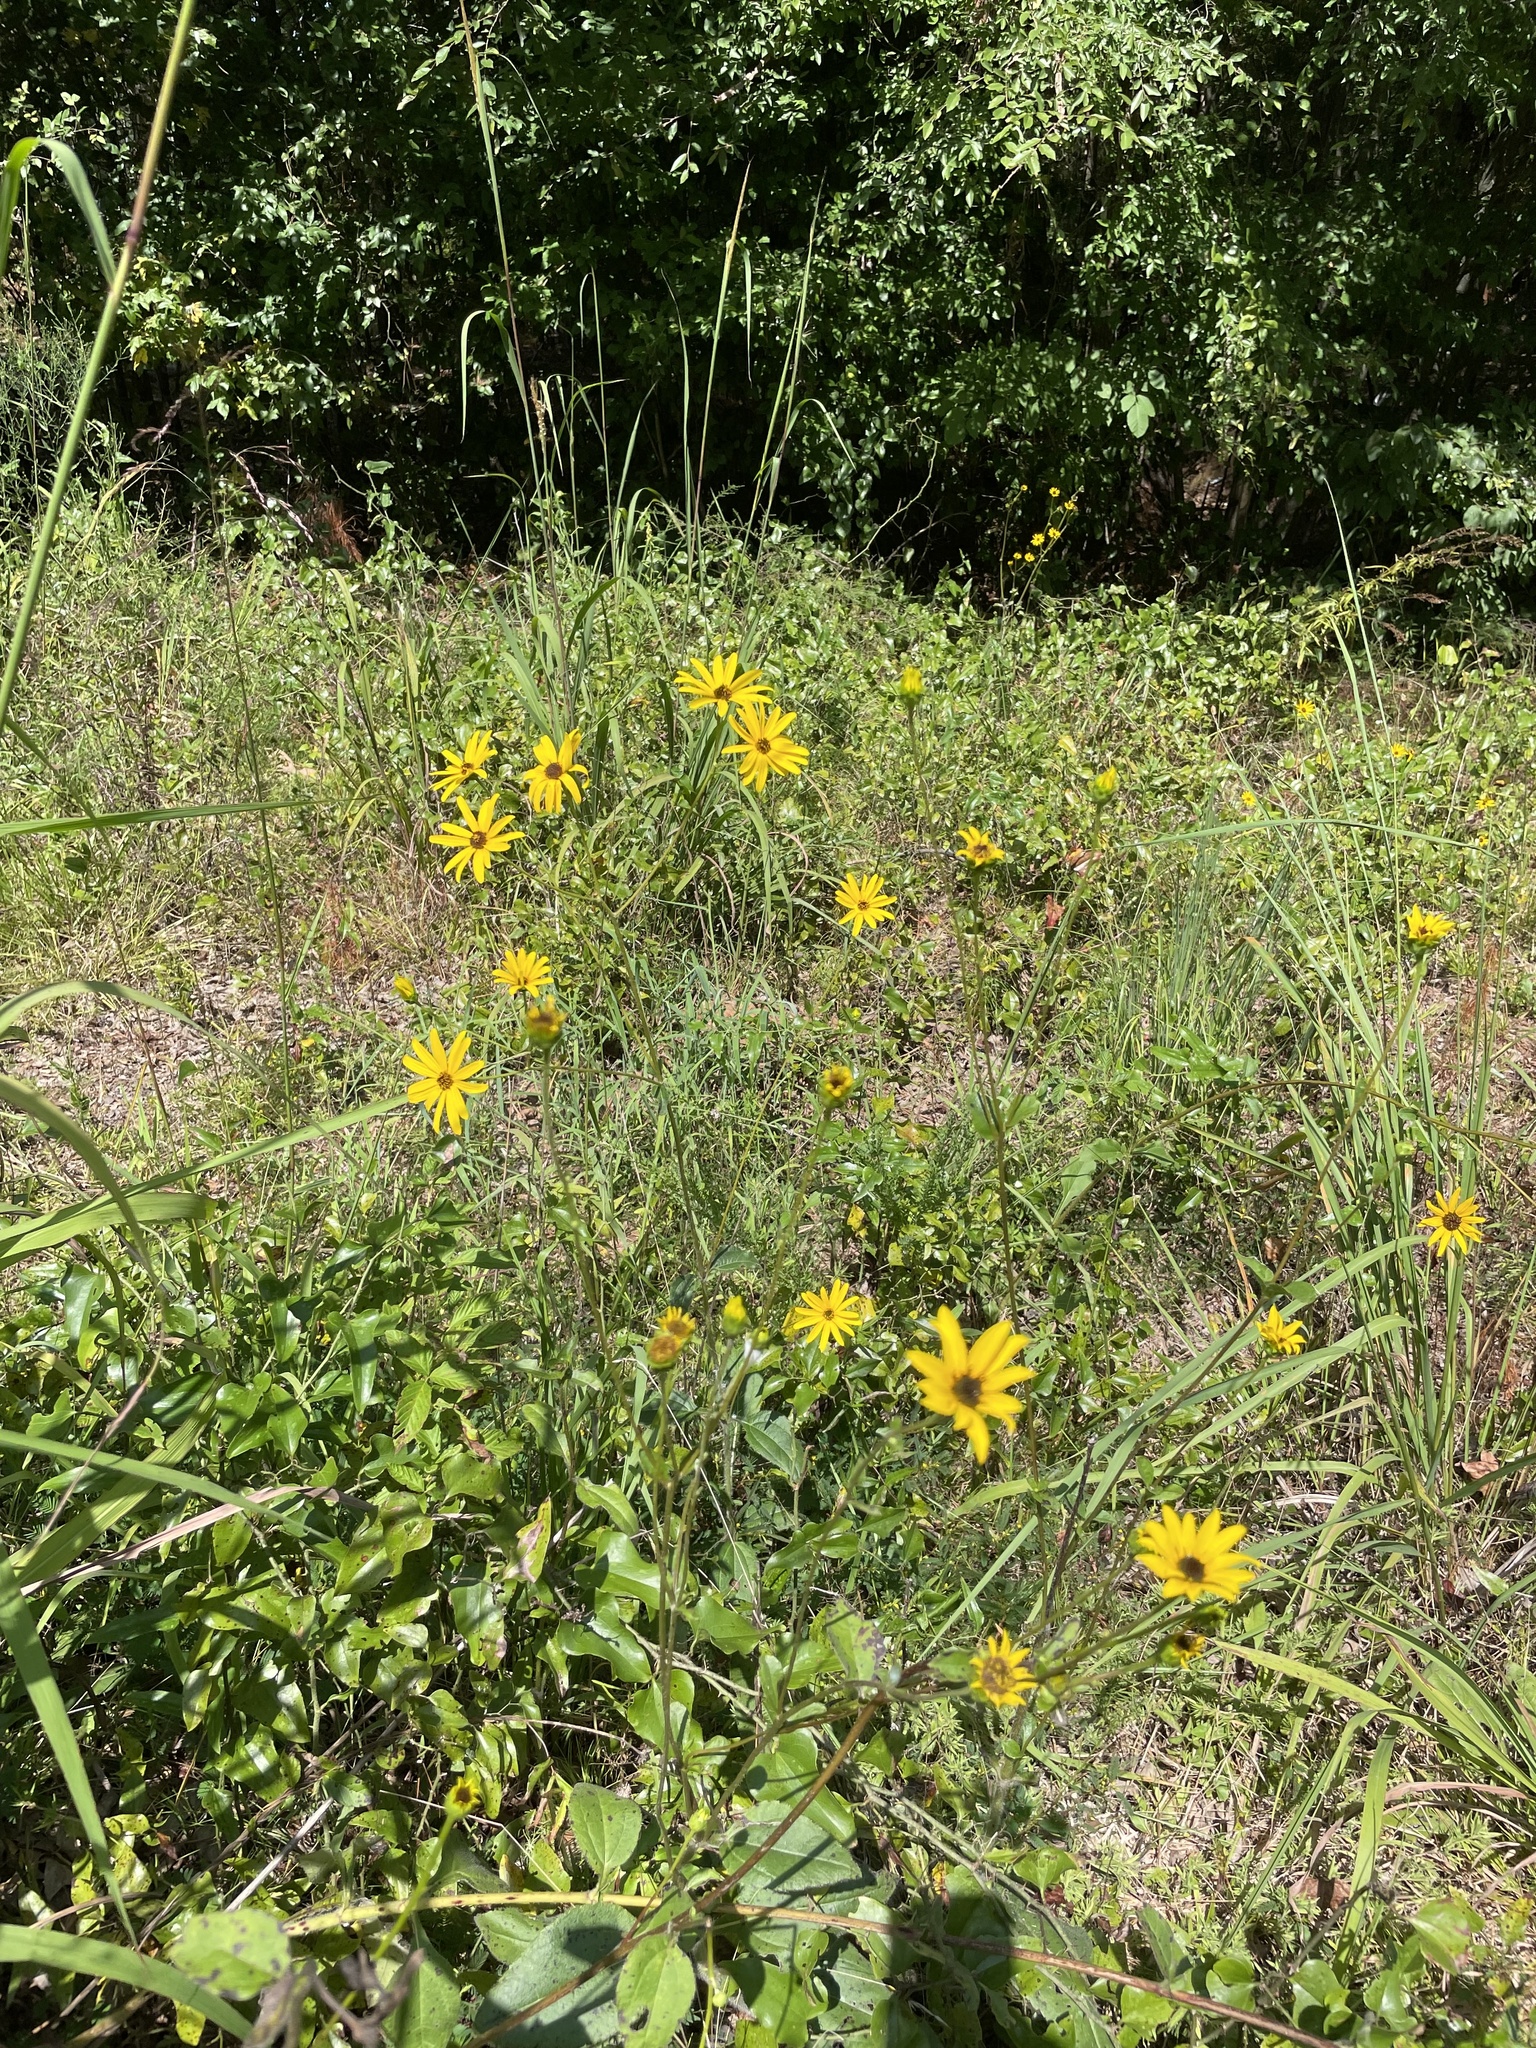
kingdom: Plantae
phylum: Tracheophyta
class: Magnoliopsida
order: Asterales
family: Asteraceae
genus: Helianthus
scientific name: Helianthus atrorubens
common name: Dark-eyed sunflower
